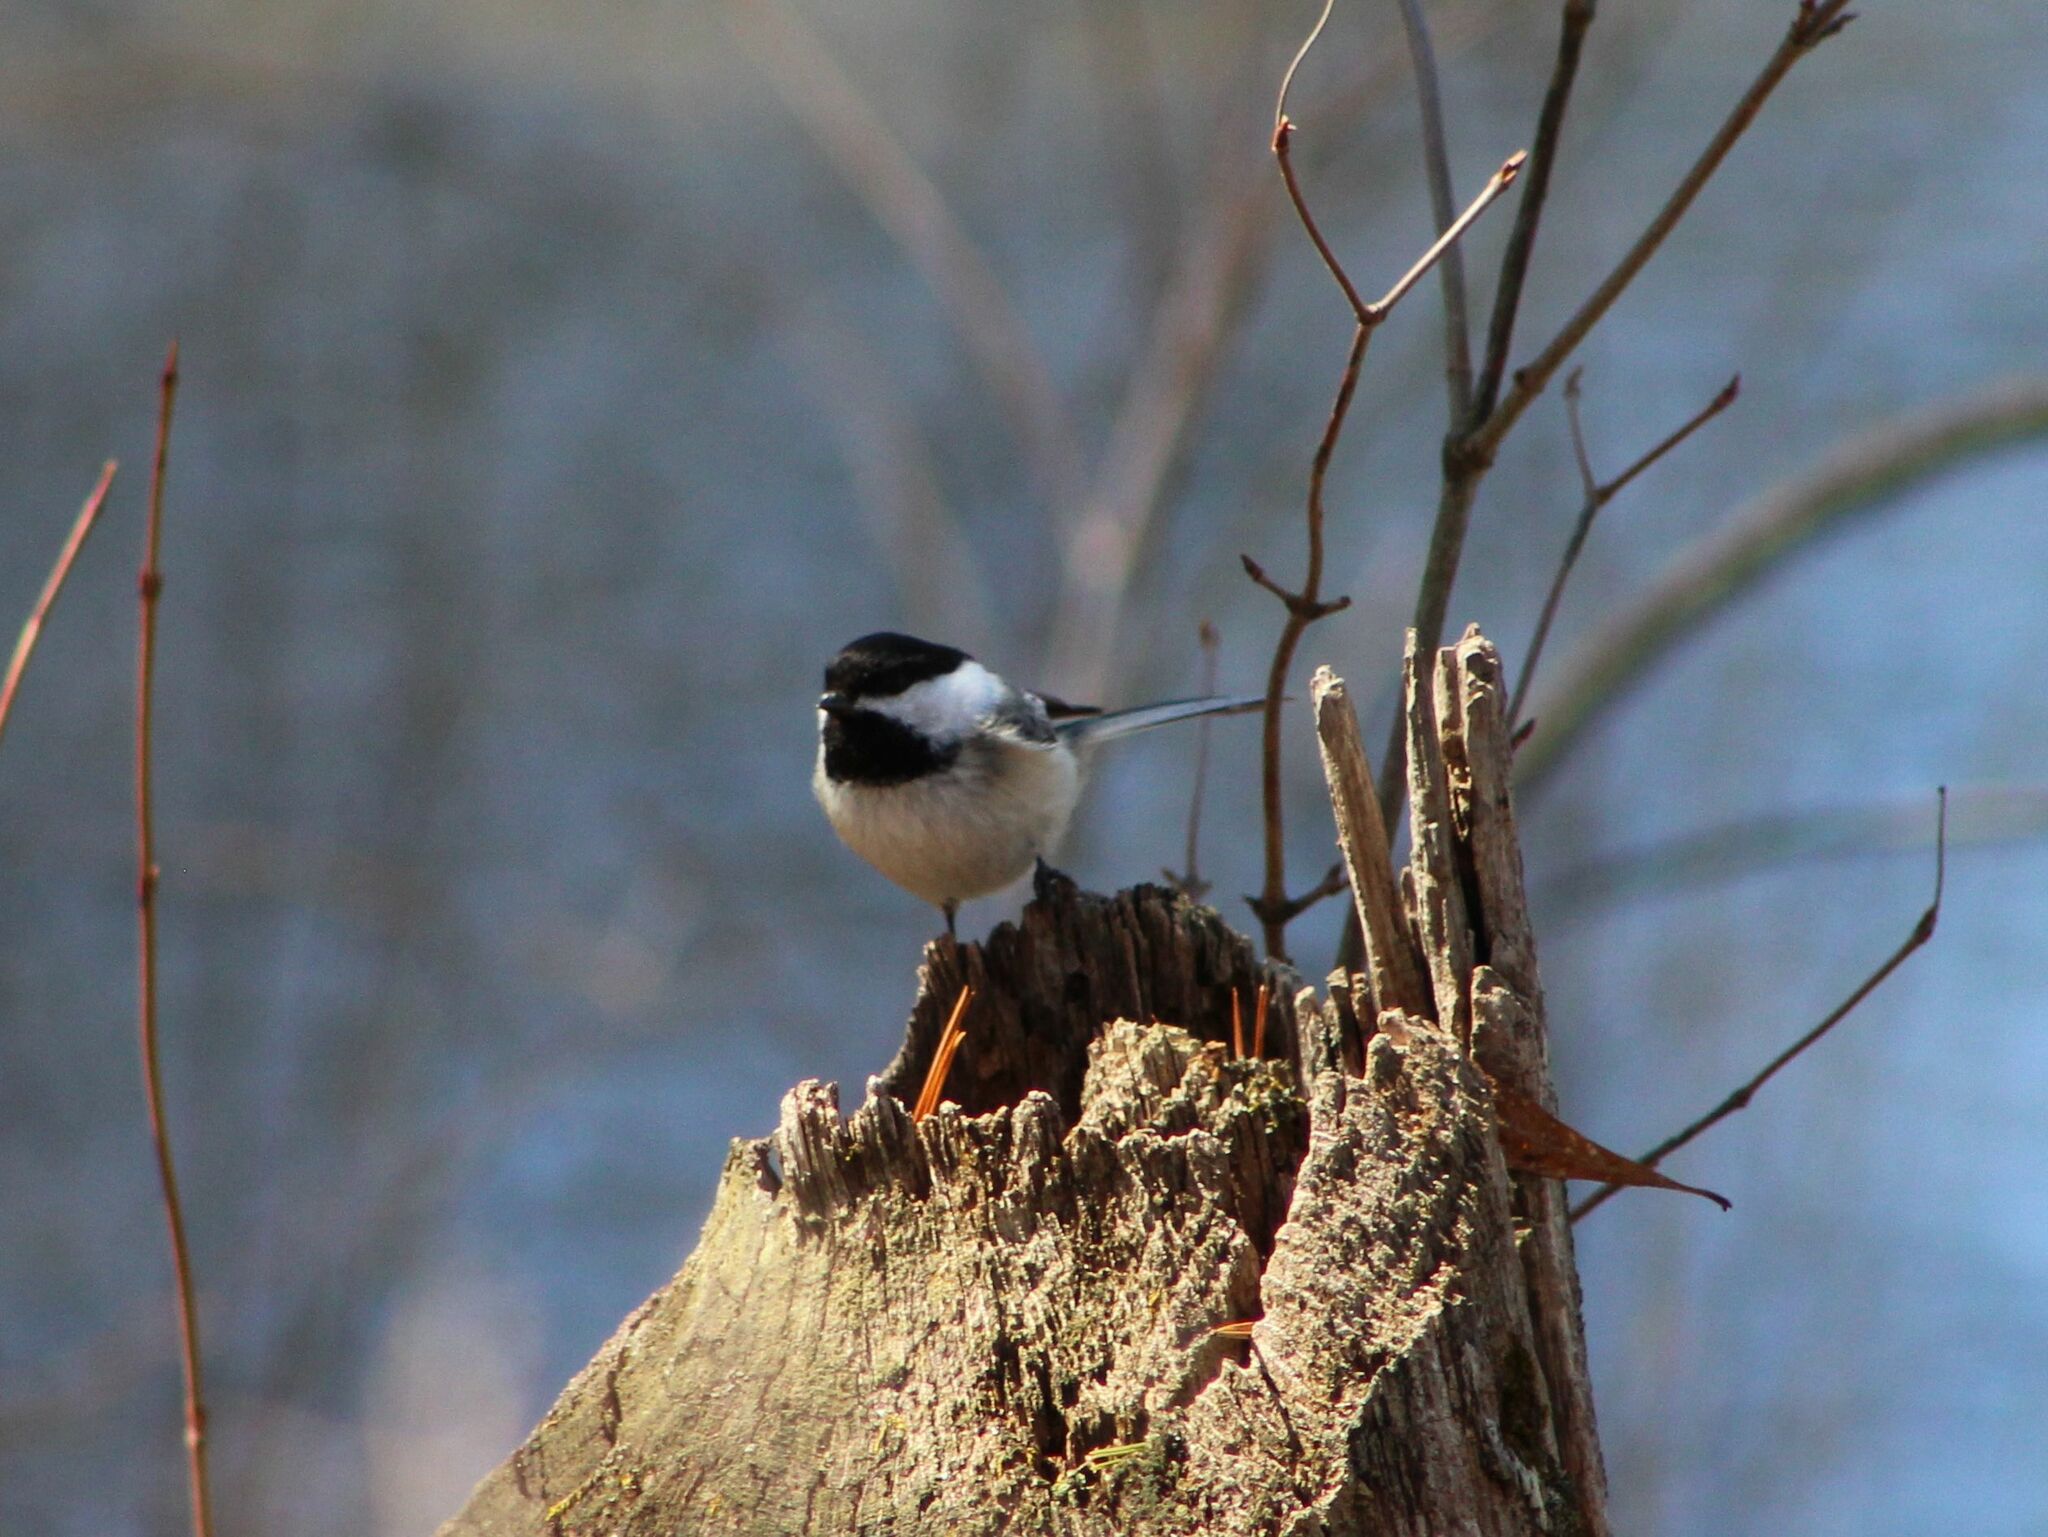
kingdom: Animalia
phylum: Chordata
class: Aves
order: Passeriformes
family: Paridae
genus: Poecile
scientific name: Poecile atricapillus
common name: Black-capped chickadee
